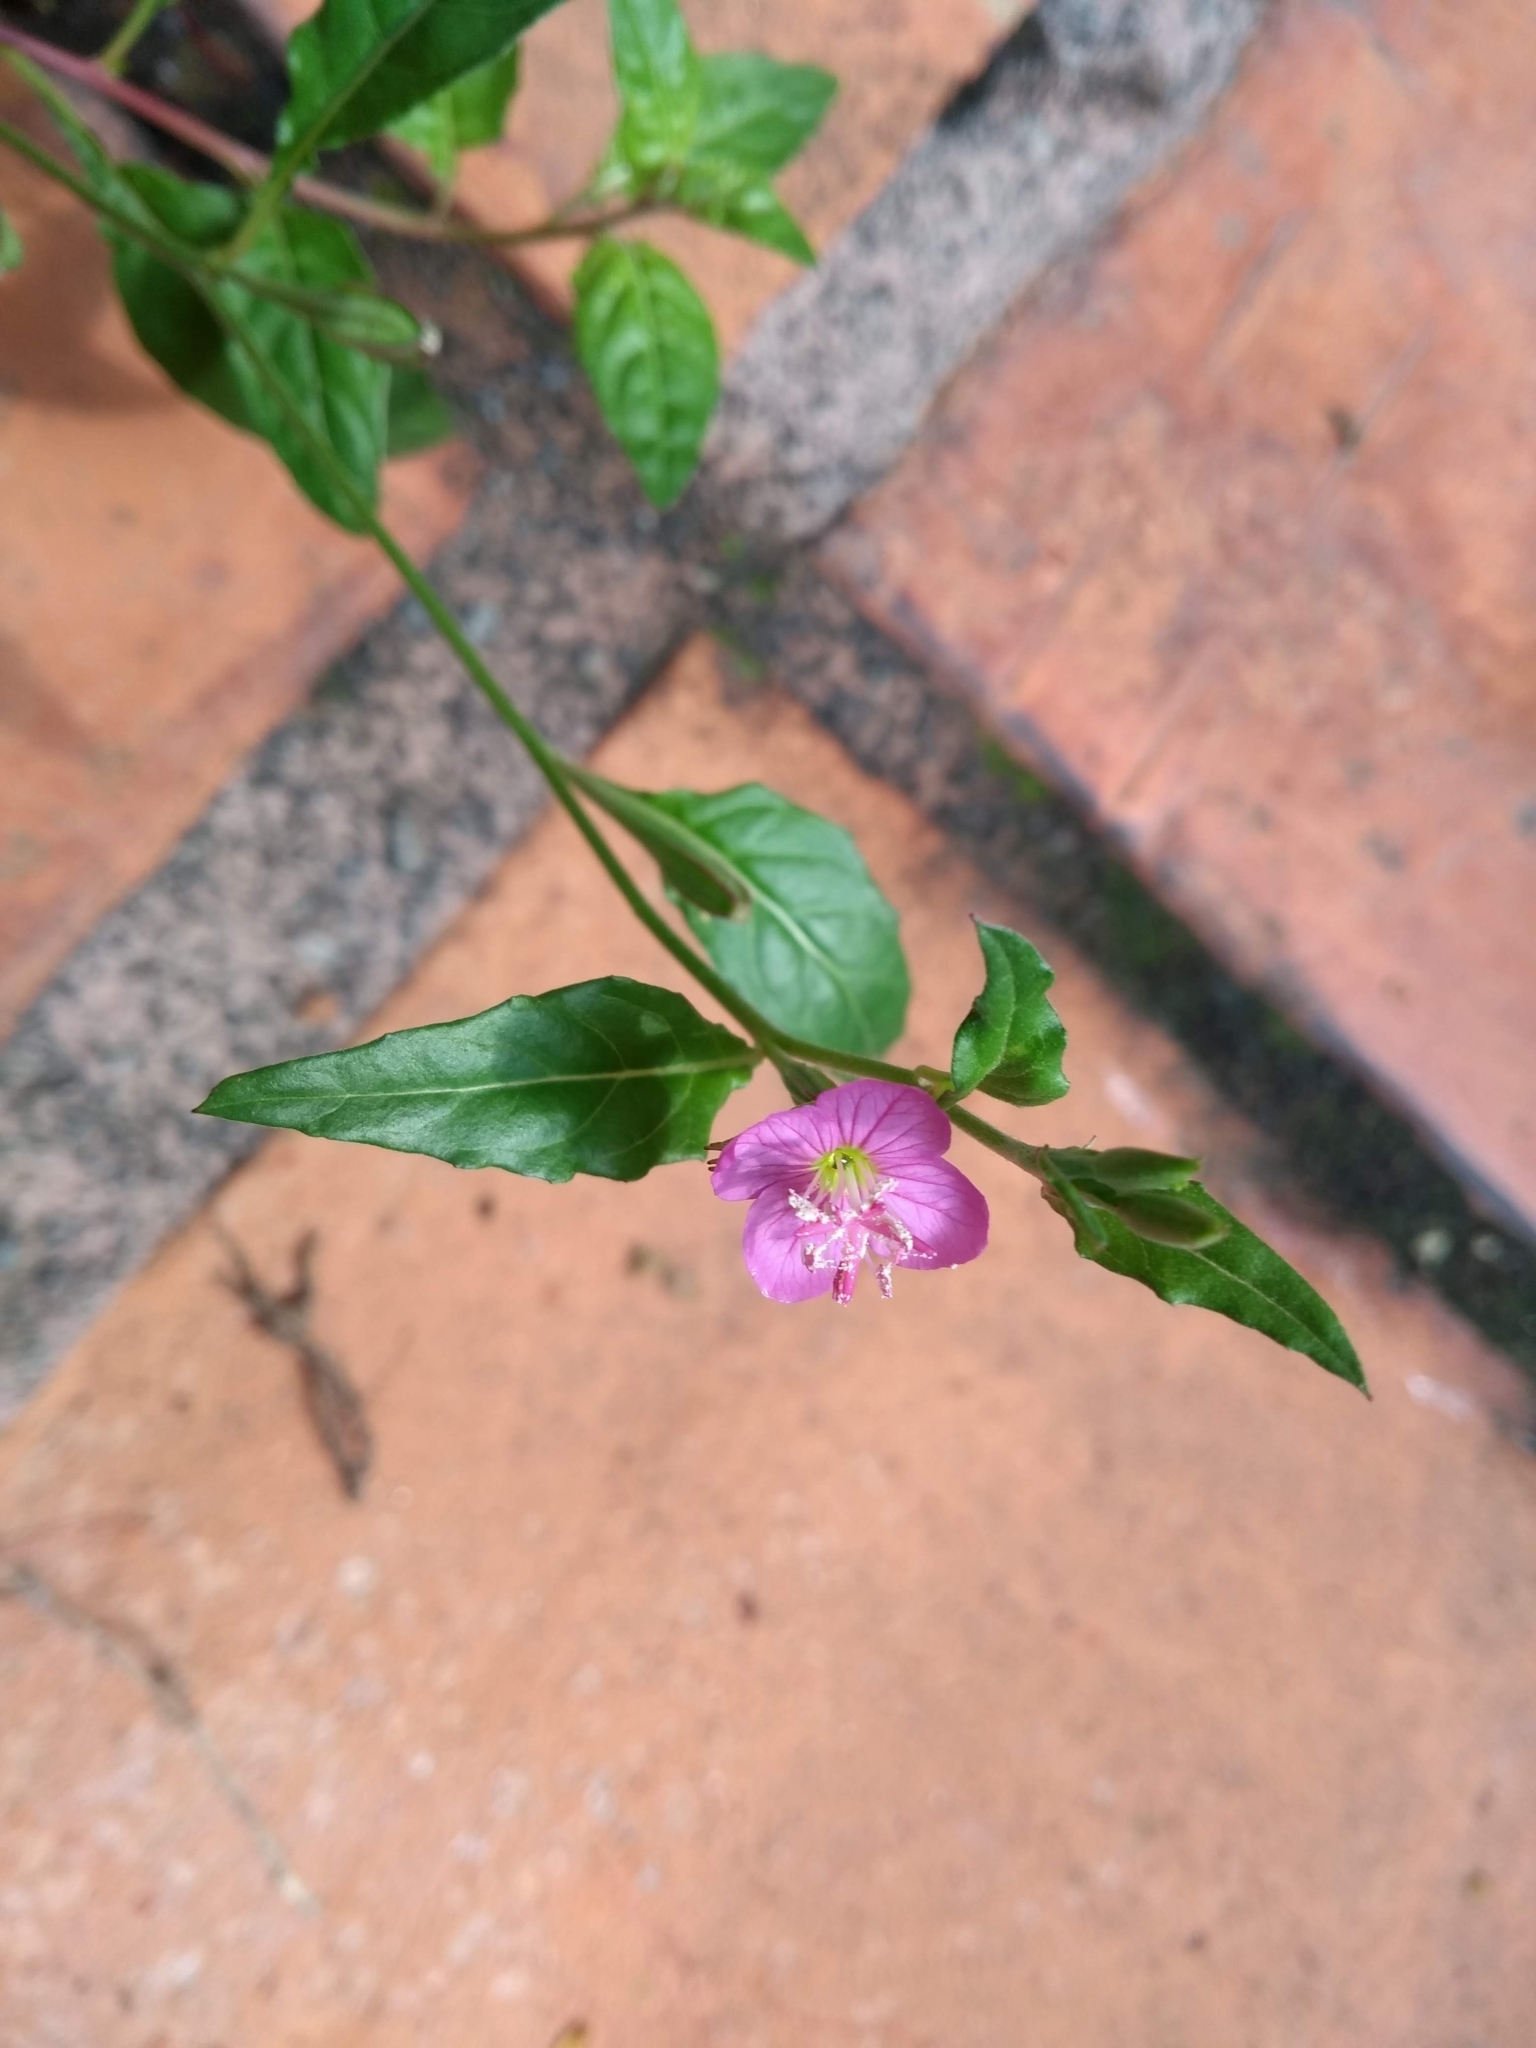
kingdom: Plantae
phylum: Tracheophyta
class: Magnoliopsida
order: Myrtales
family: Onagraceae
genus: Oenothera
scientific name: Oenothera rosea
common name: Rosy evening-primrose
